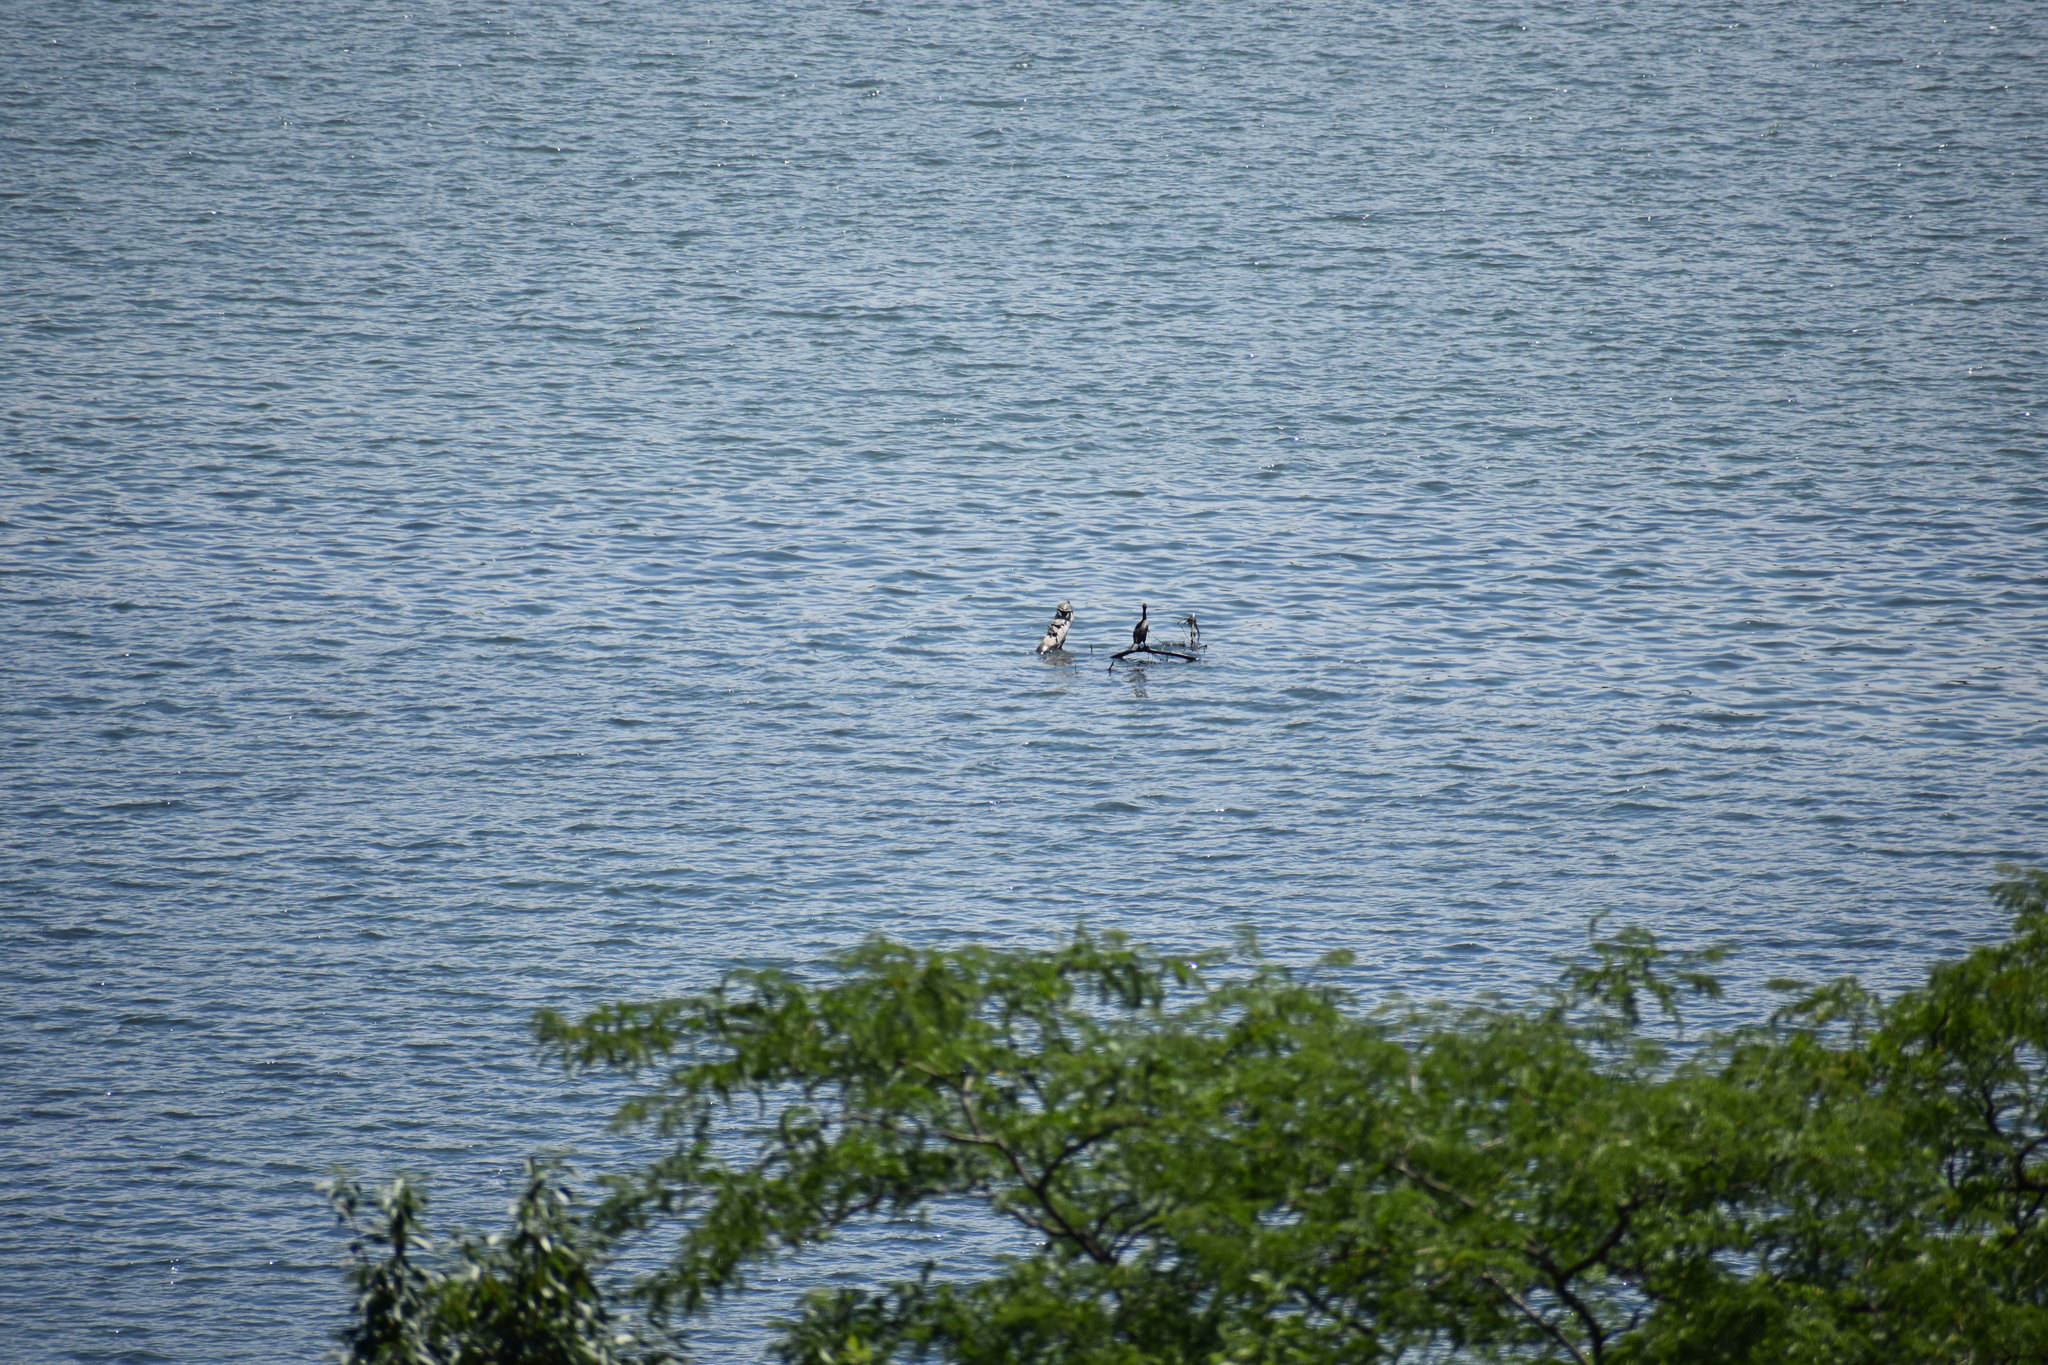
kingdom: Animalia
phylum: Chordata
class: Aves
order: Suliformes
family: Phalacrocoracidae
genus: Phalacrocorax
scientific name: Phalacrocorax auritus
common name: Double-crested cormorant
